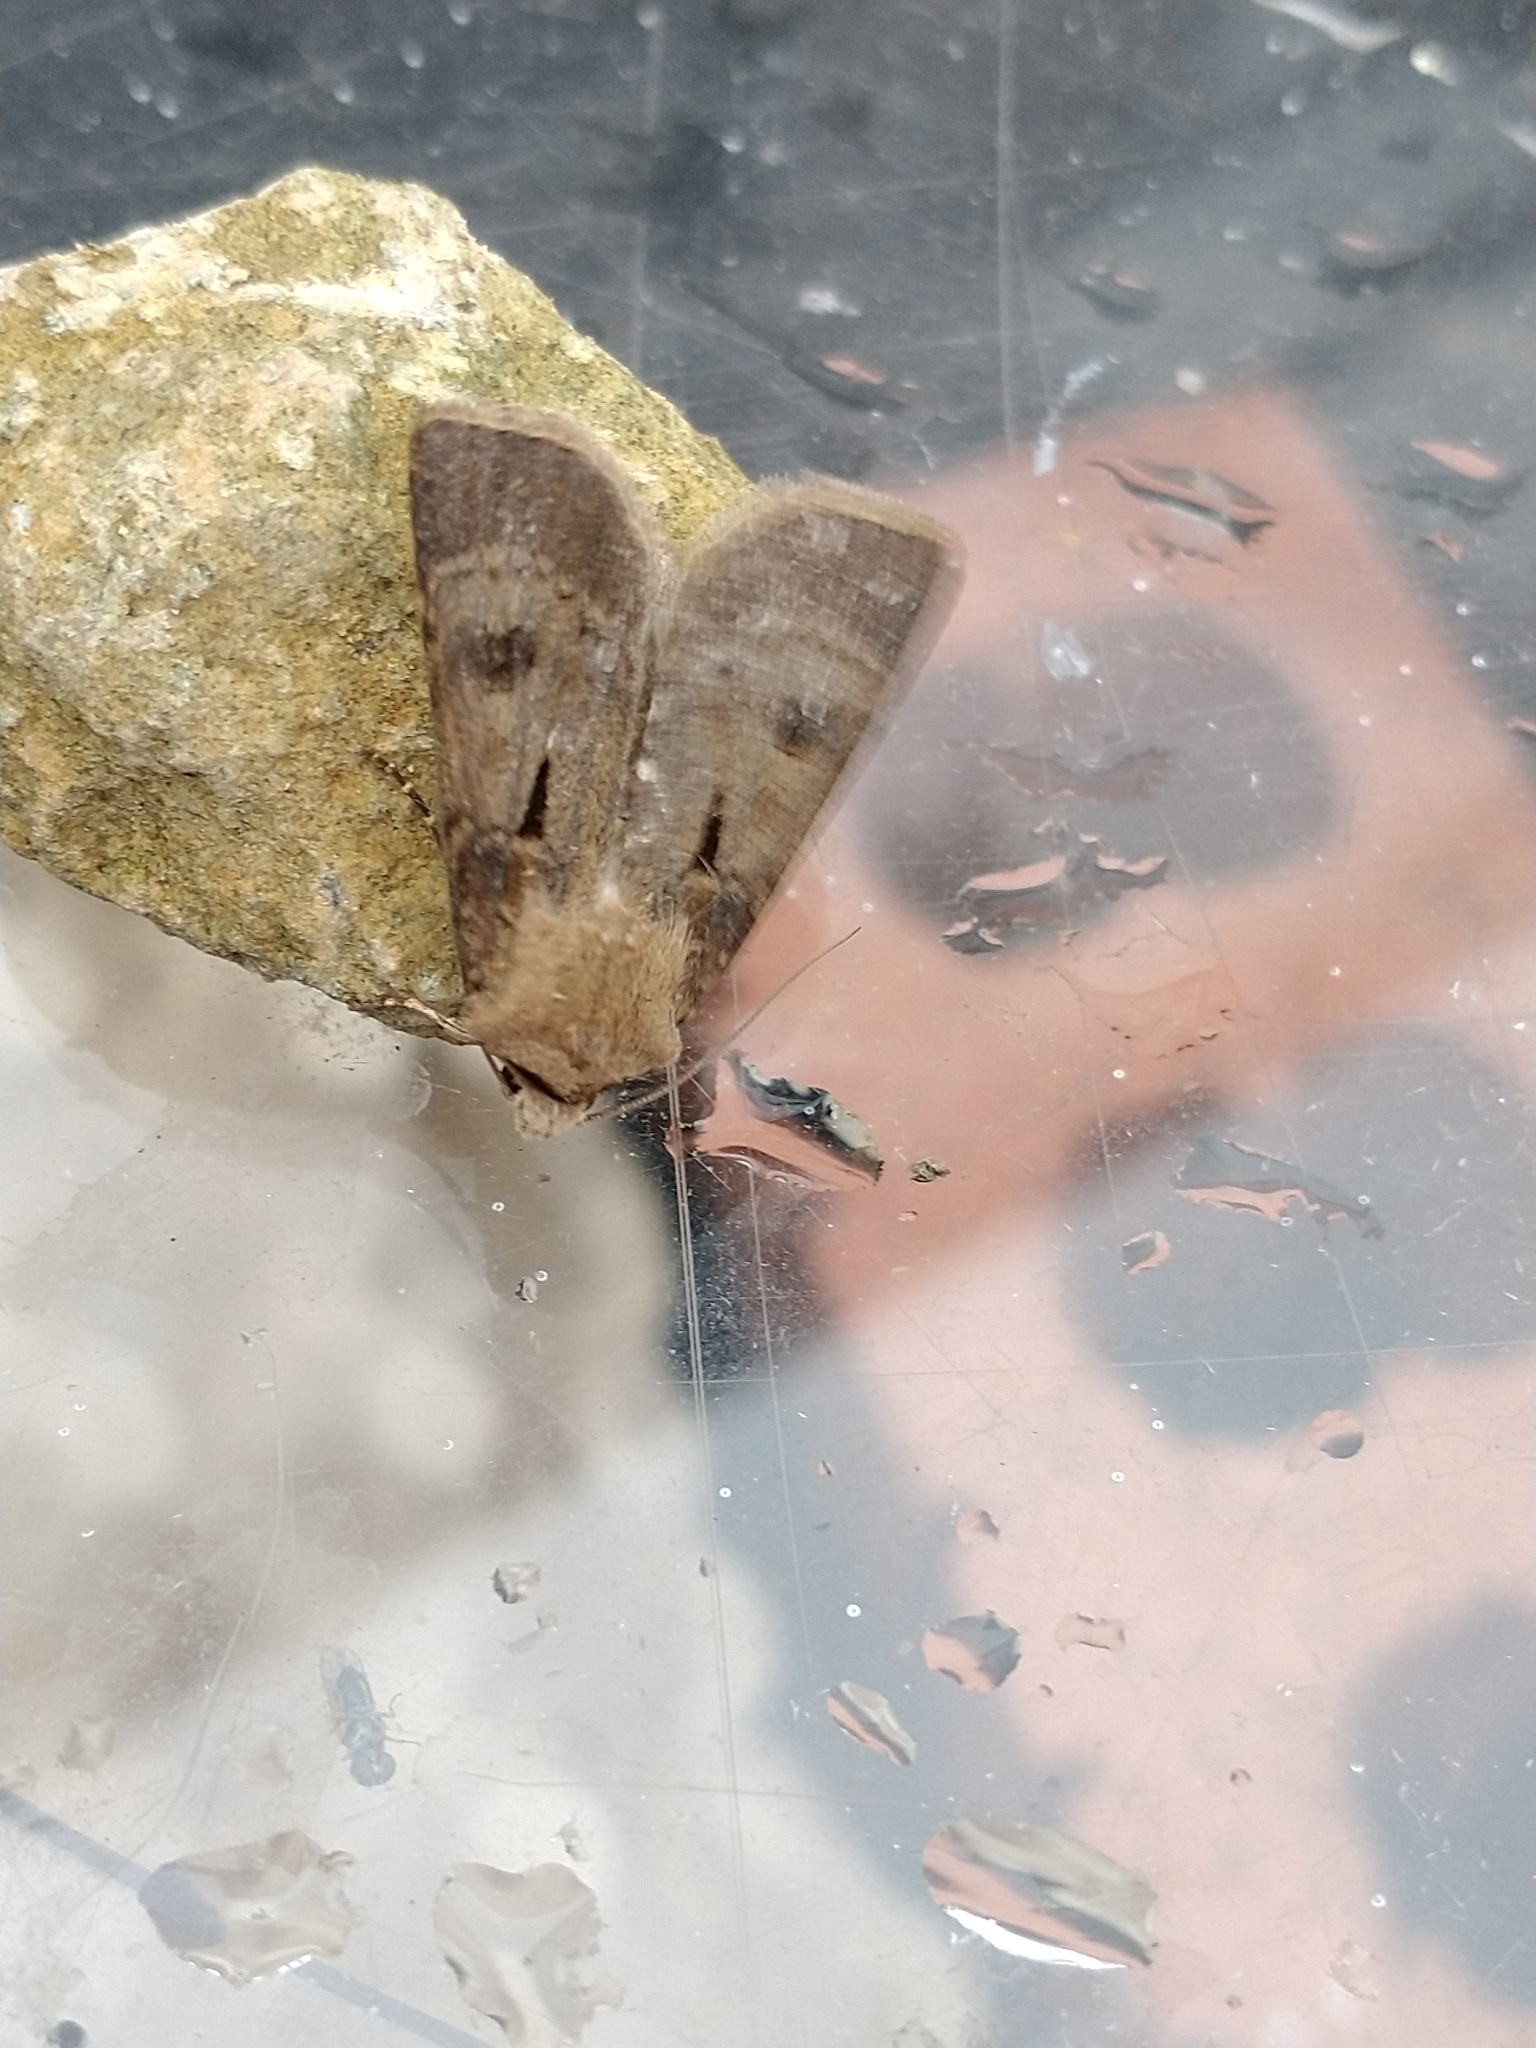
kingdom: Animalia
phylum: Arthropoda
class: Insecta
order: Lepidoptera
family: Noctuidae
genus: Agrotis
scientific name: Agrotis exclamationis
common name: Heart and dart
